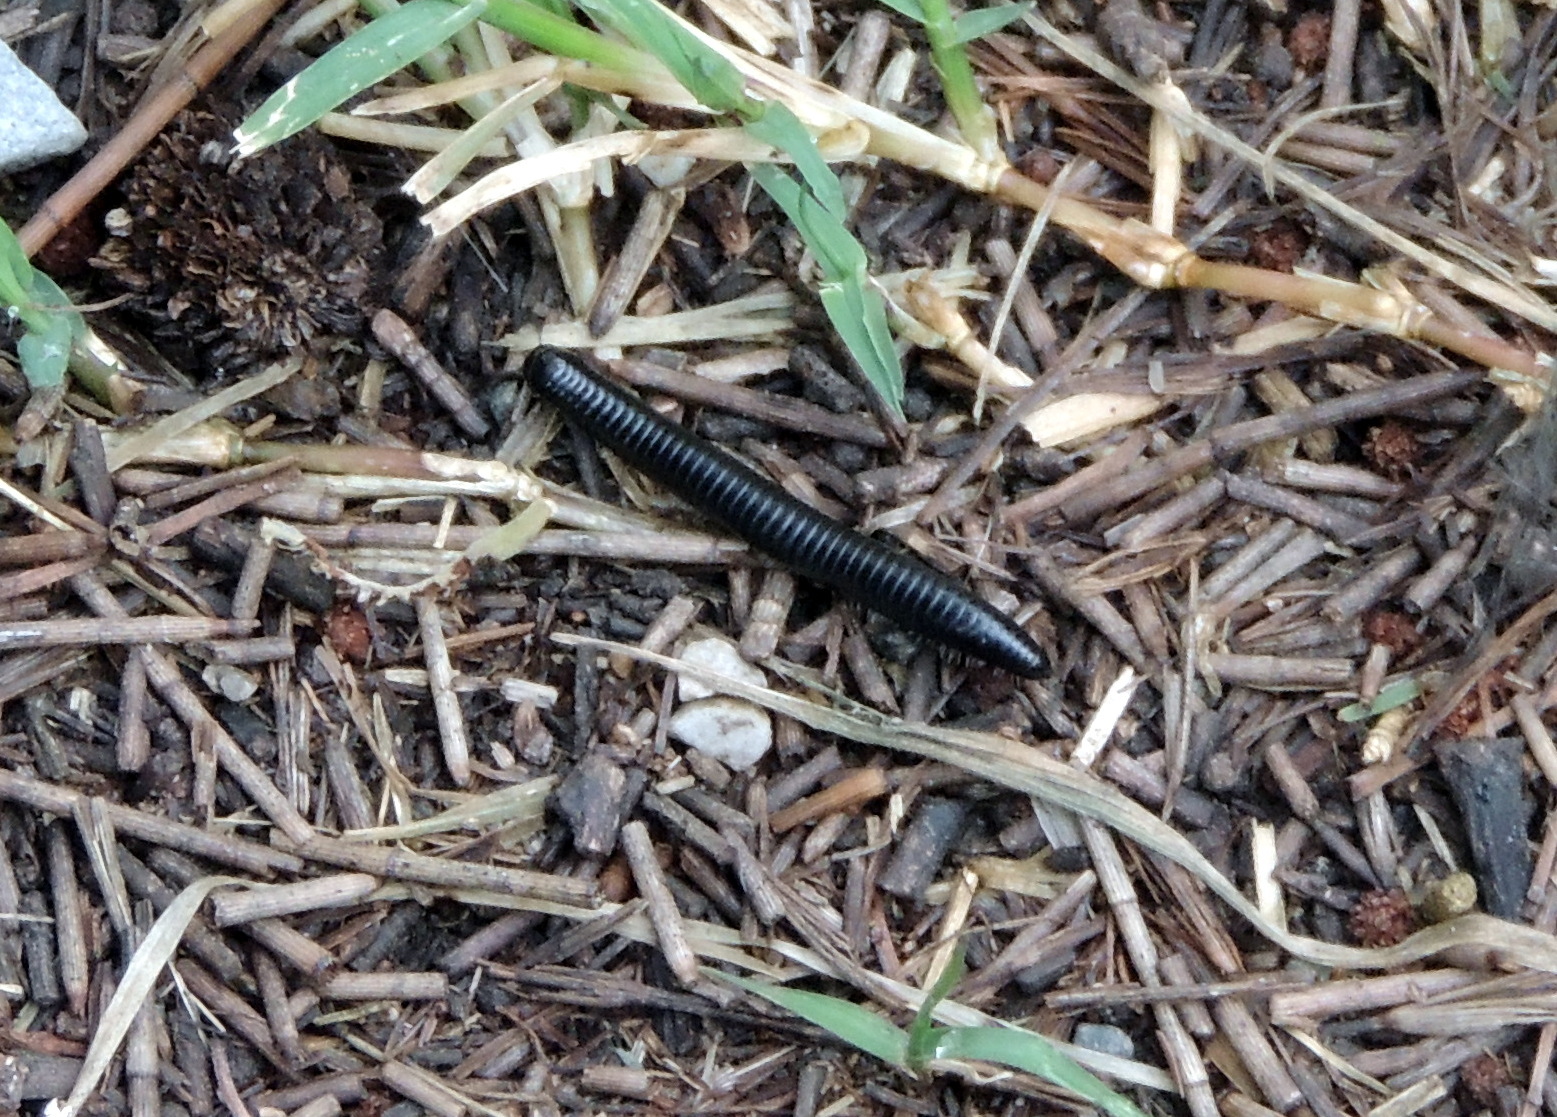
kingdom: Animalia
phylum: Arthropoda
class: Diplopoda
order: Julida
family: Julidae
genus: Ommatoiulus
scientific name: Ommatoiulus moreleti
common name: Portuguese millipede
